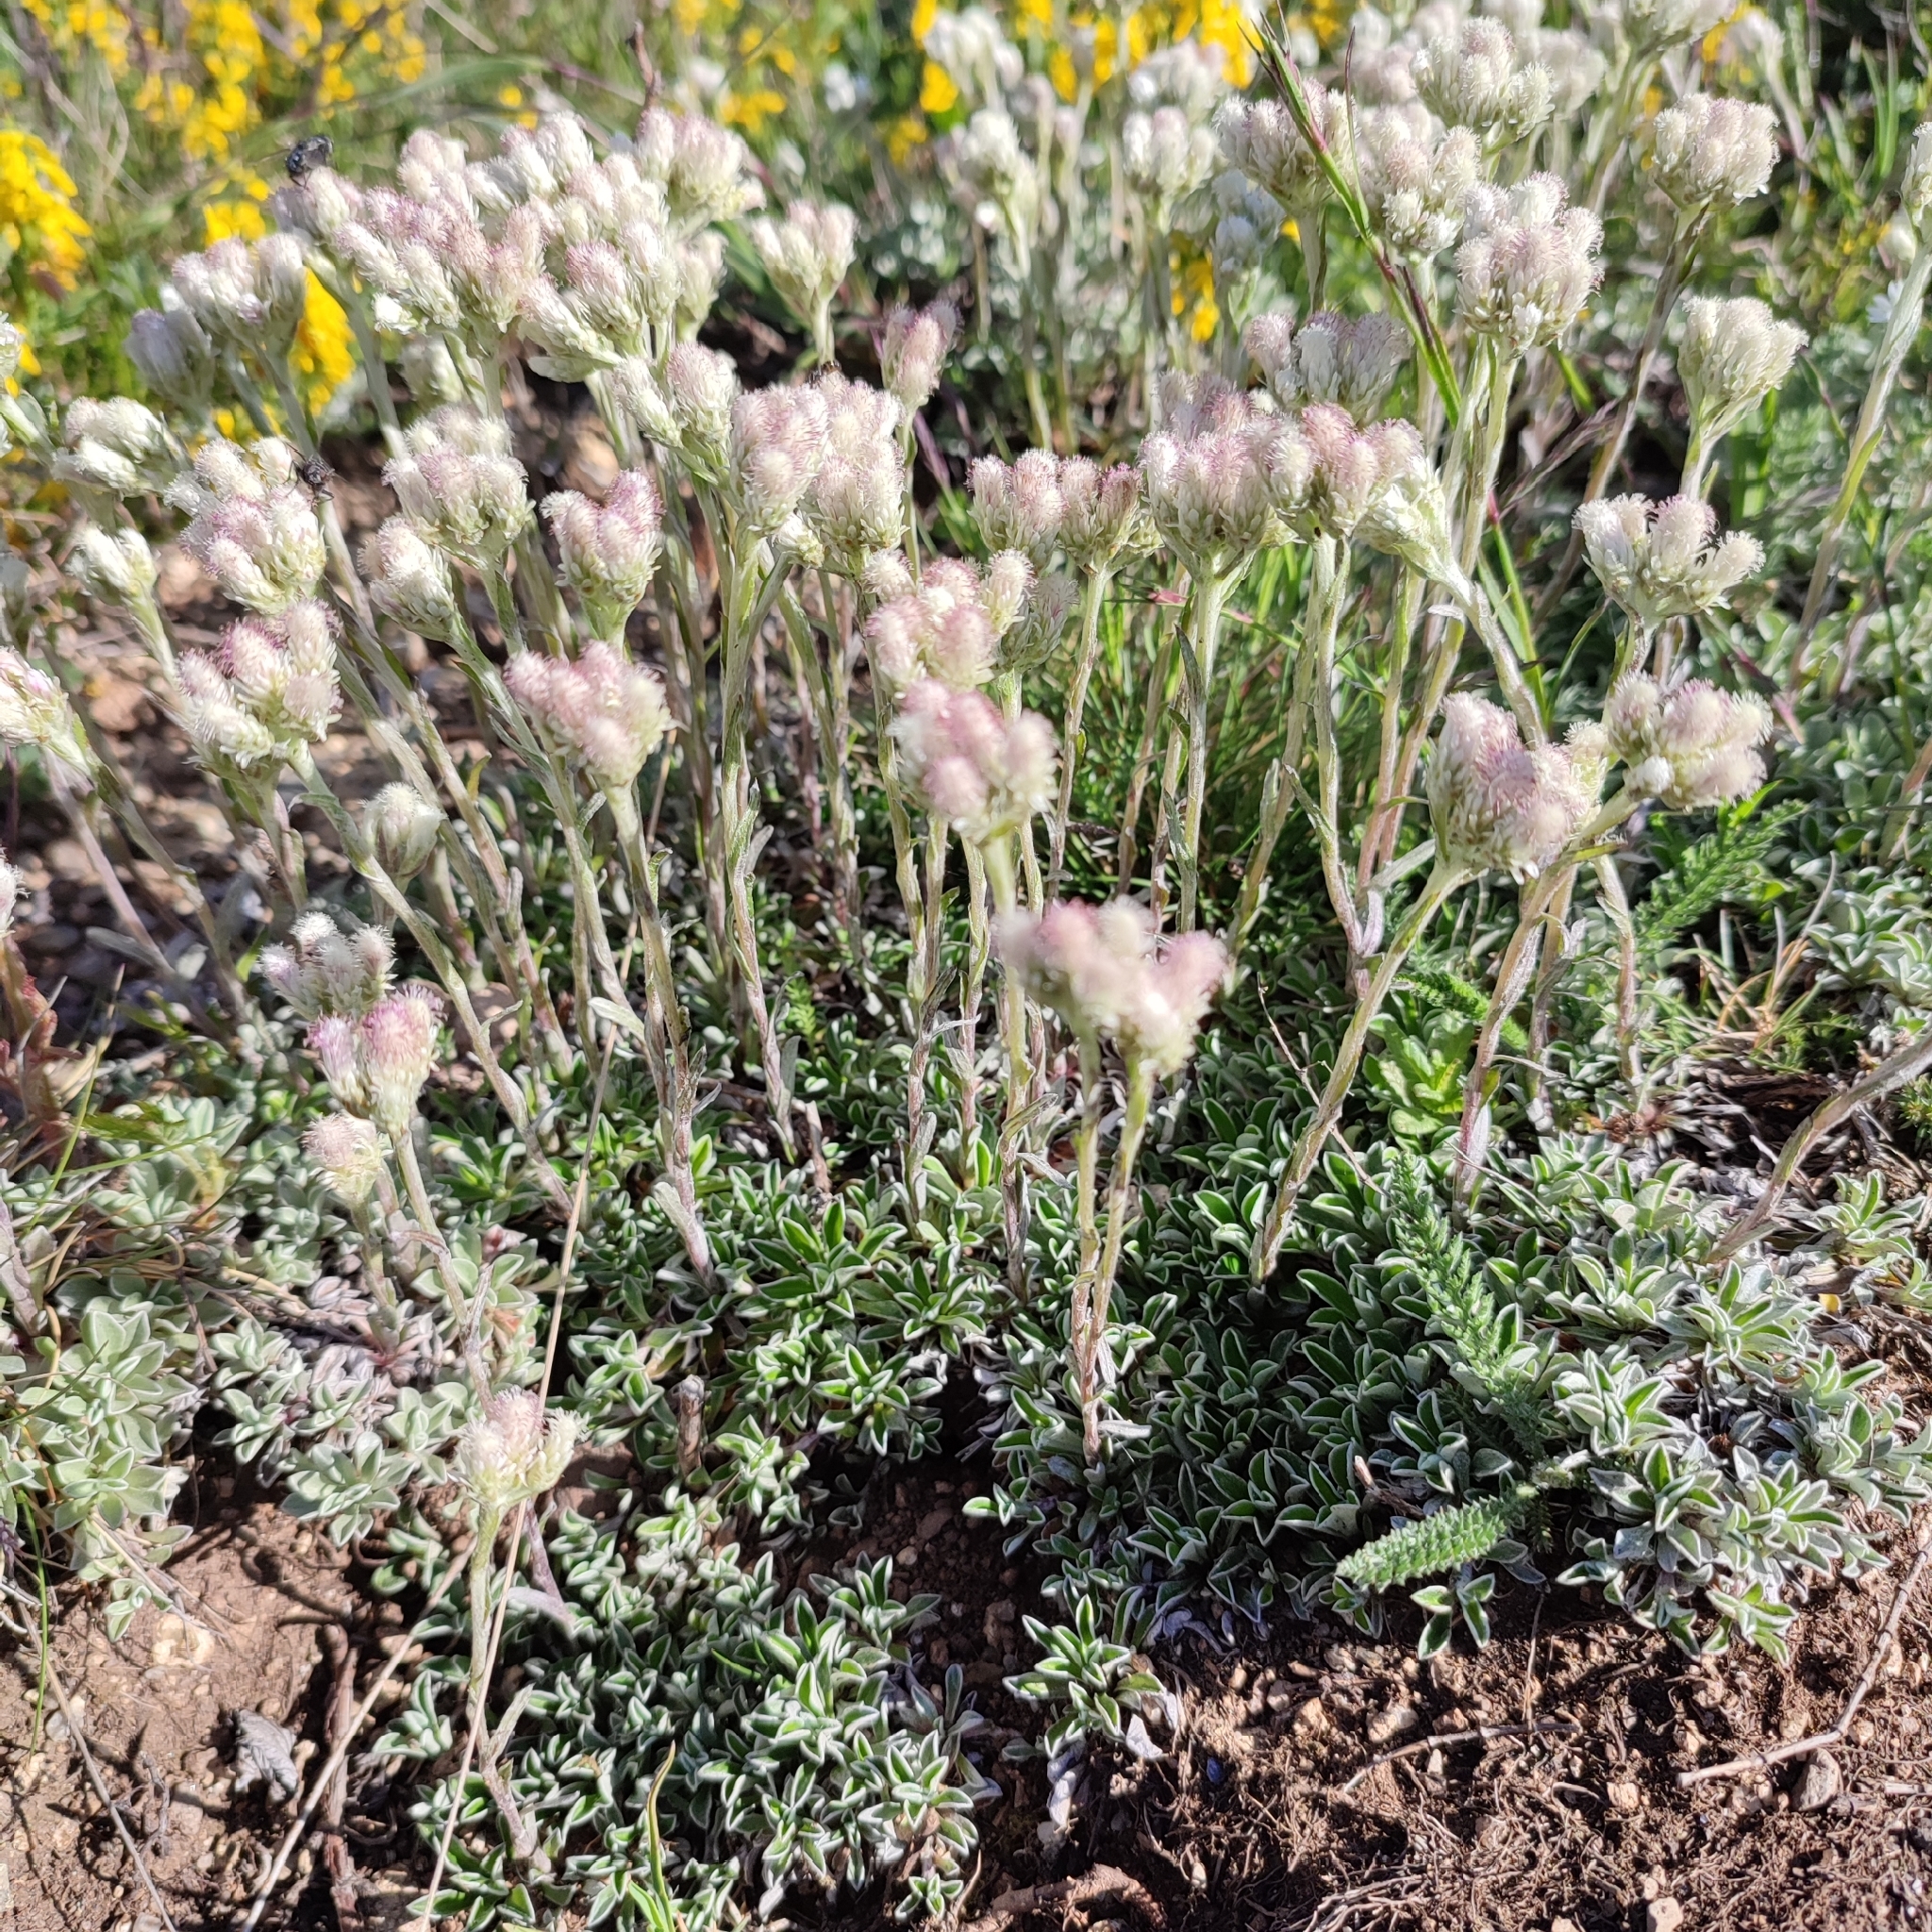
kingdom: Plantae
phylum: Tracheophyta
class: Magnoliopsida
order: Asterales
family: Asteraceae
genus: Antennaria
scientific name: Antennaria dioica
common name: Mountain everlasting
